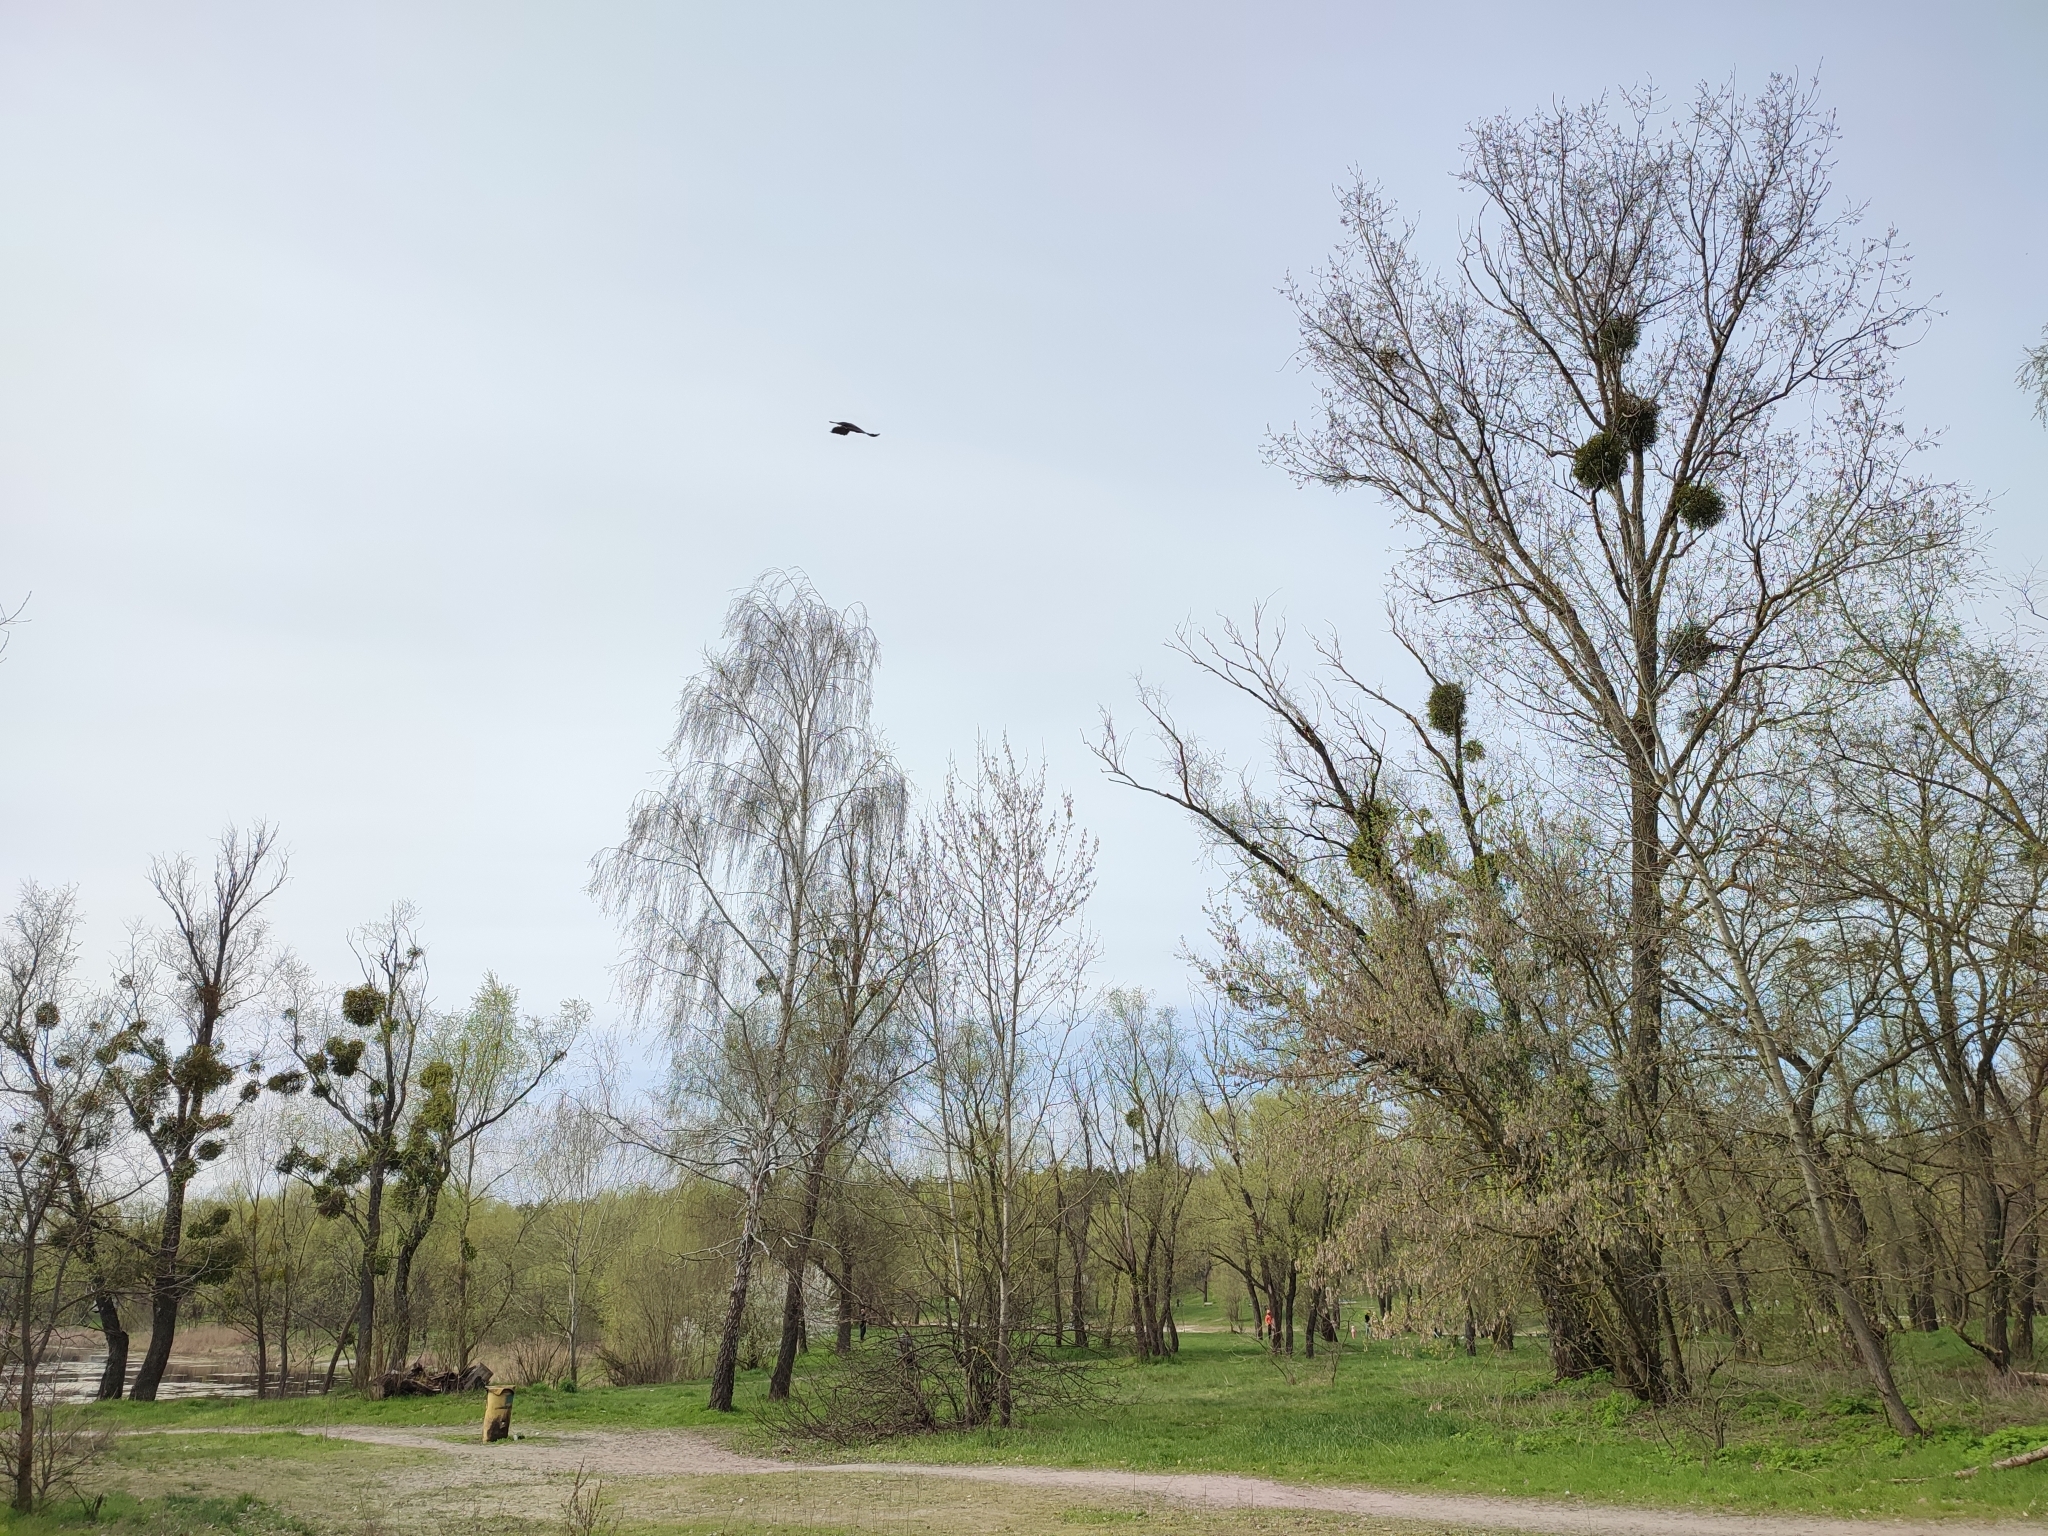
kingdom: Plantae
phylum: Tracheophyta
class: Magnoliopsida
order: Santalales
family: Viscaceae
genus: Viscum
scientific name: Viscum album
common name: Mistletoe
